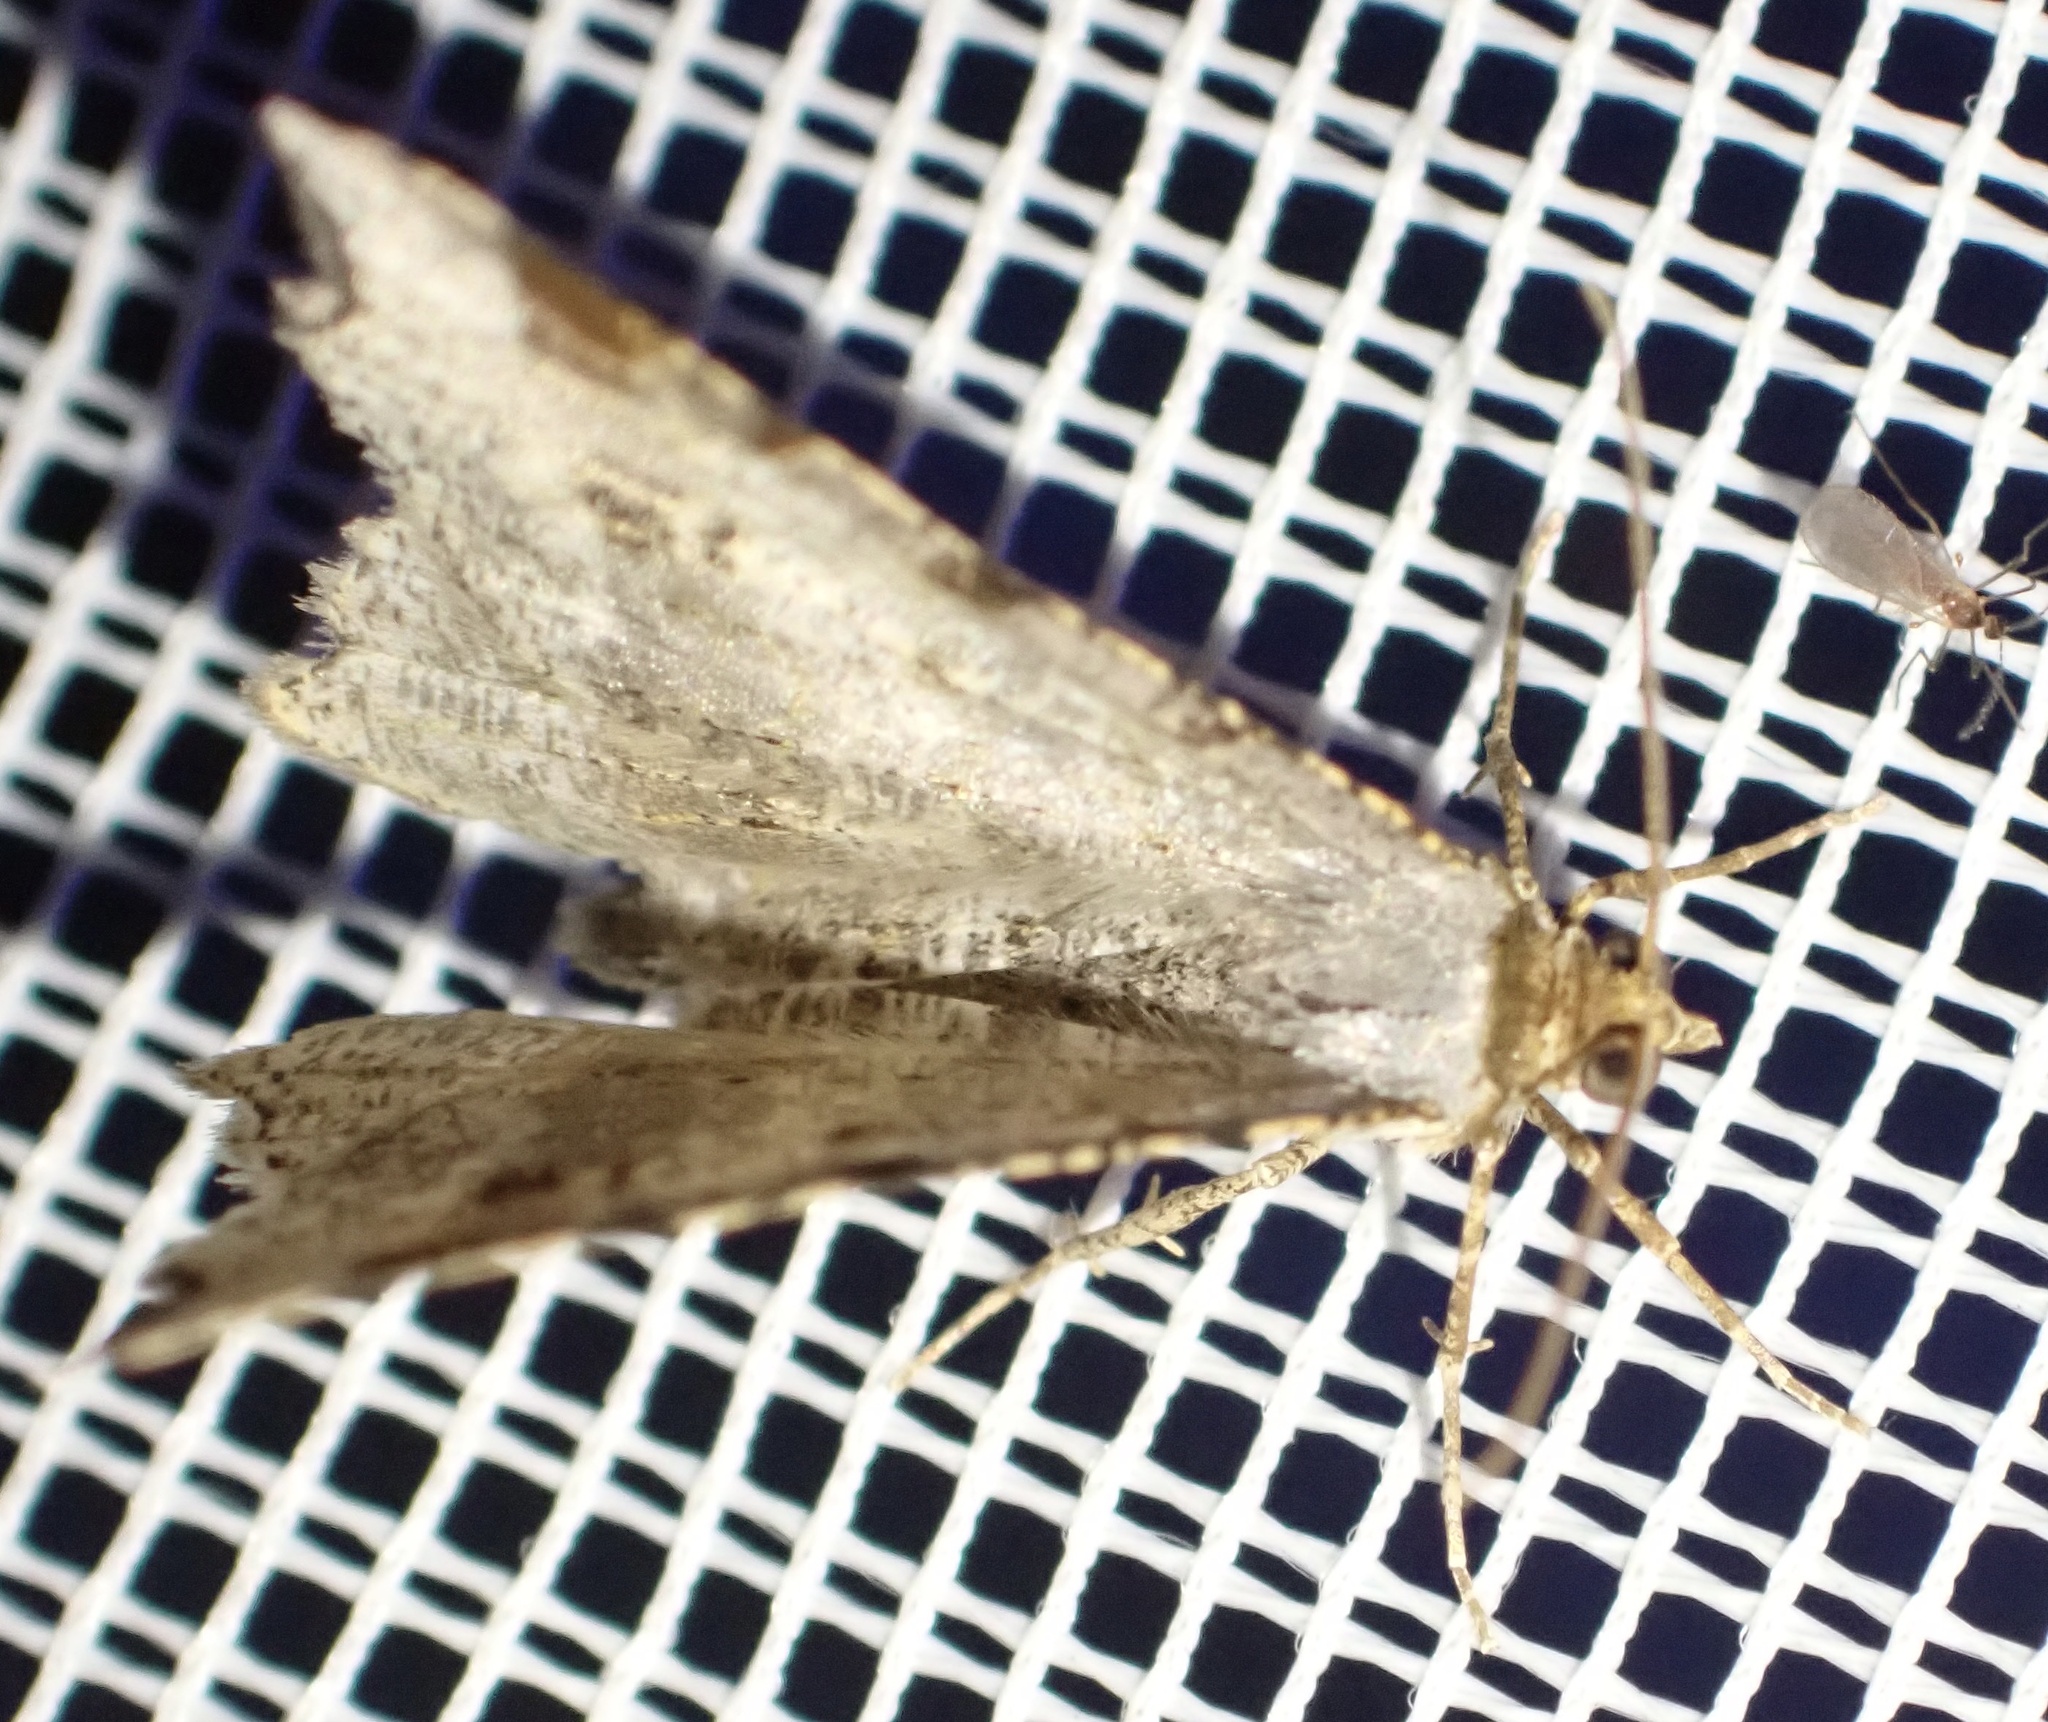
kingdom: Animalia
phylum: Arthropoda
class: Insecta
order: Lepidoptera
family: Geometridae
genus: Macaria
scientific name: Macaria alternata
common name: Sharp-angled peacock
